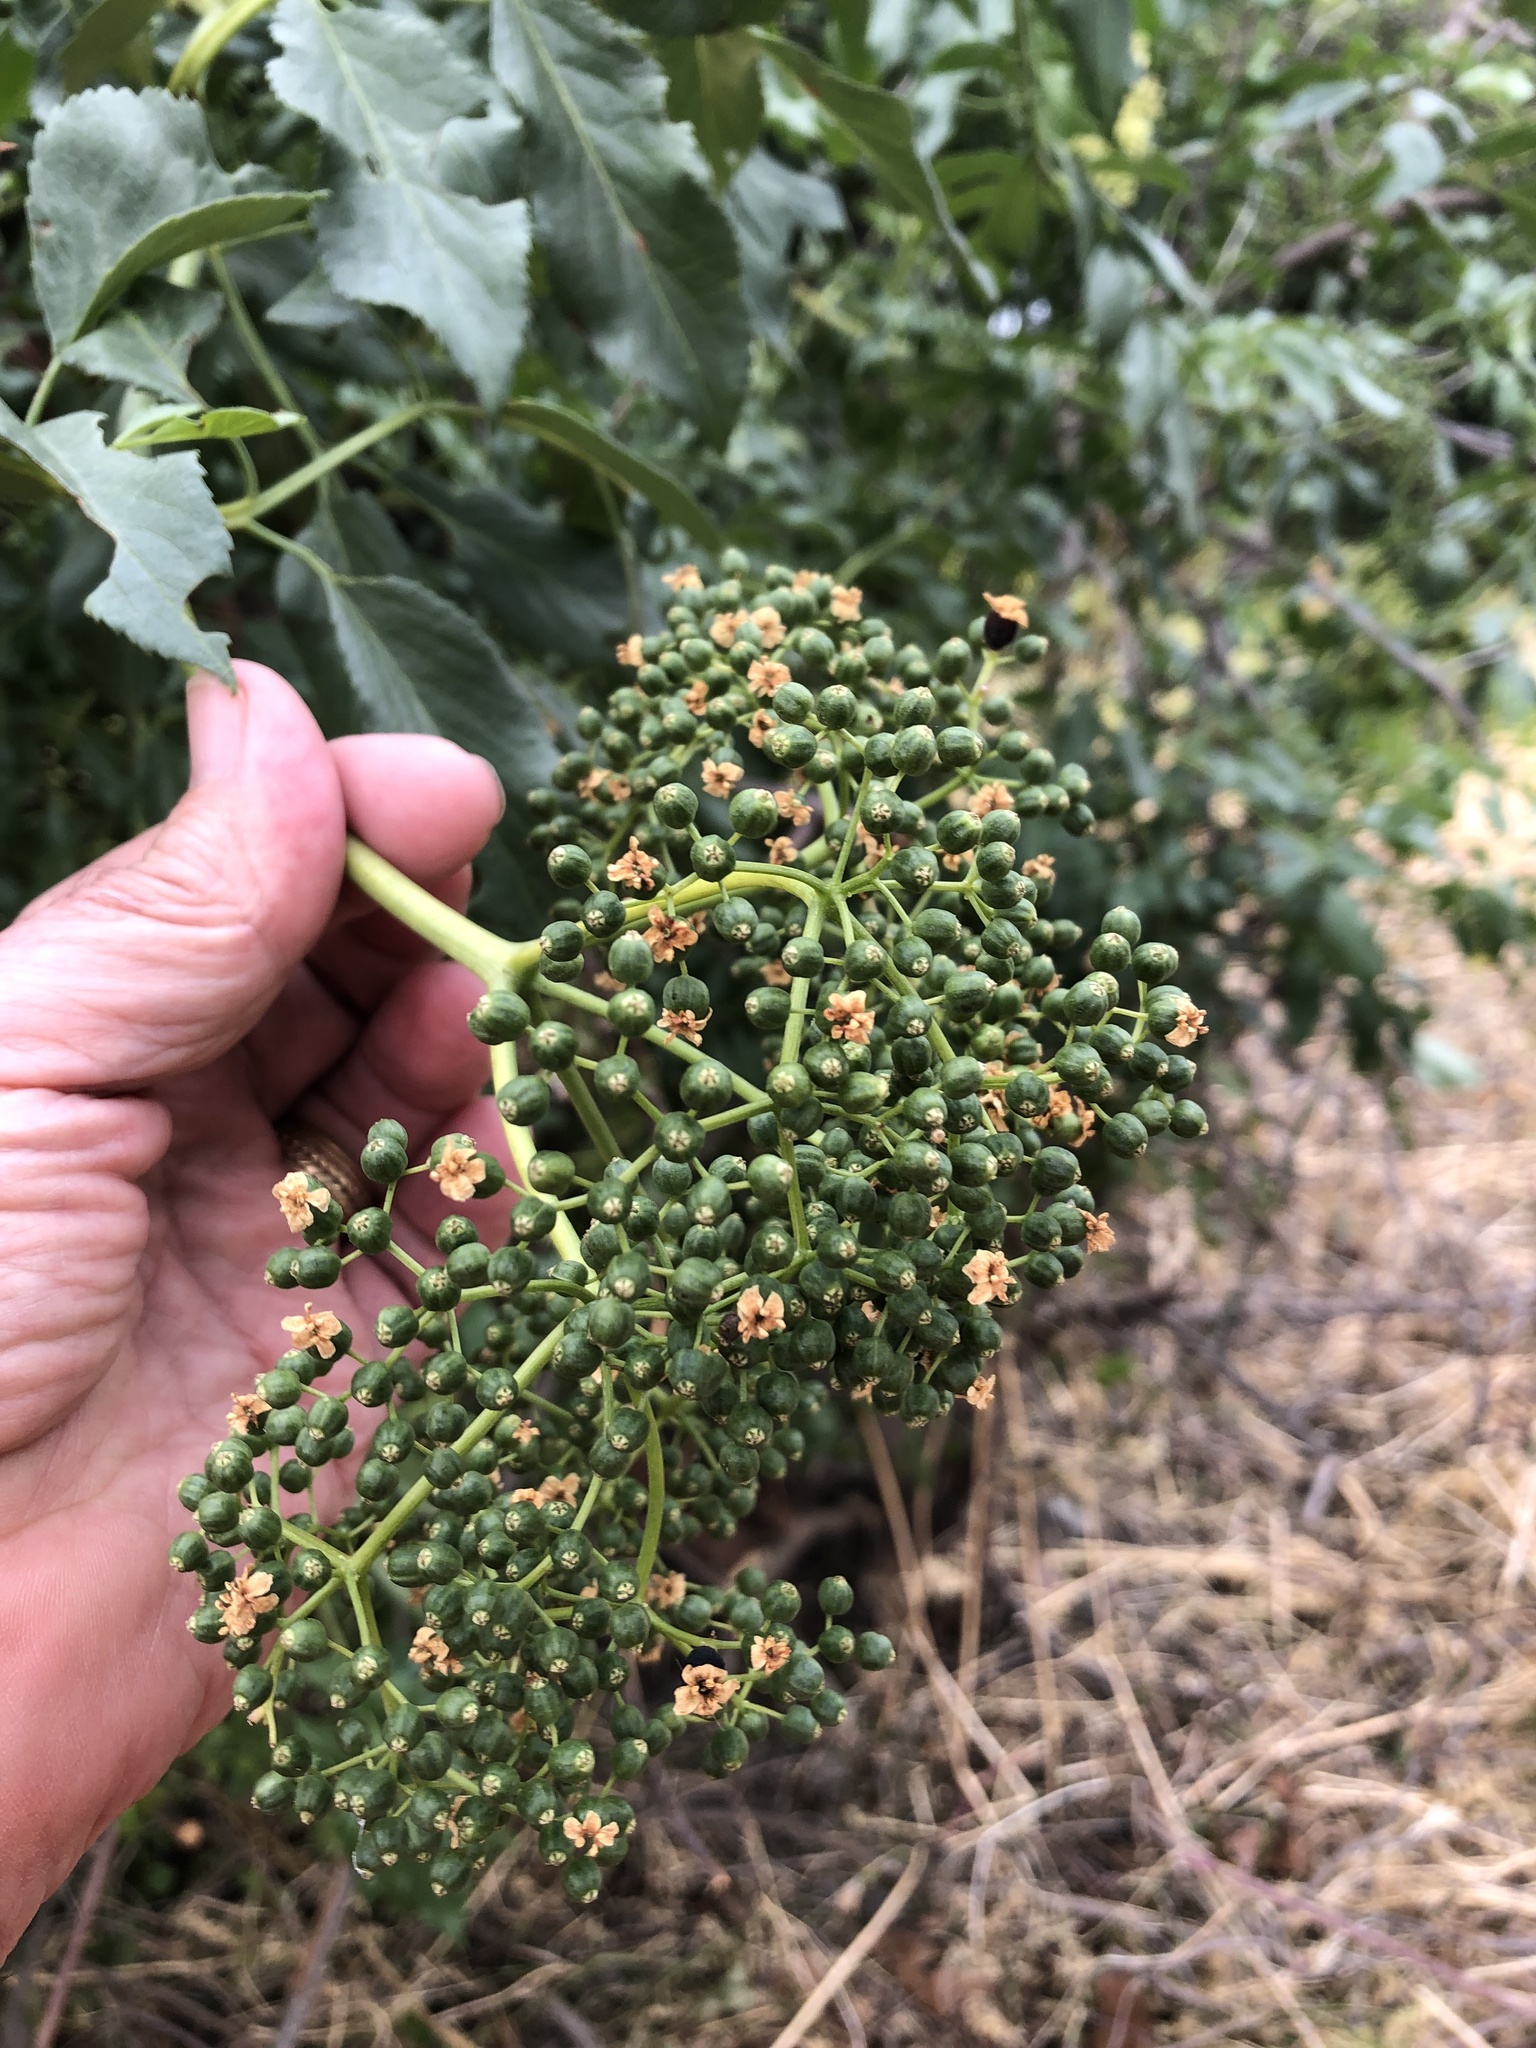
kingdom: Plantae
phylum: Tracheophyta
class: Magnoliopsida
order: Dipsacales
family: Viburnaceae
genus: Sambucus
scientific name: Sambucus cerulea
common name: Blue elder
